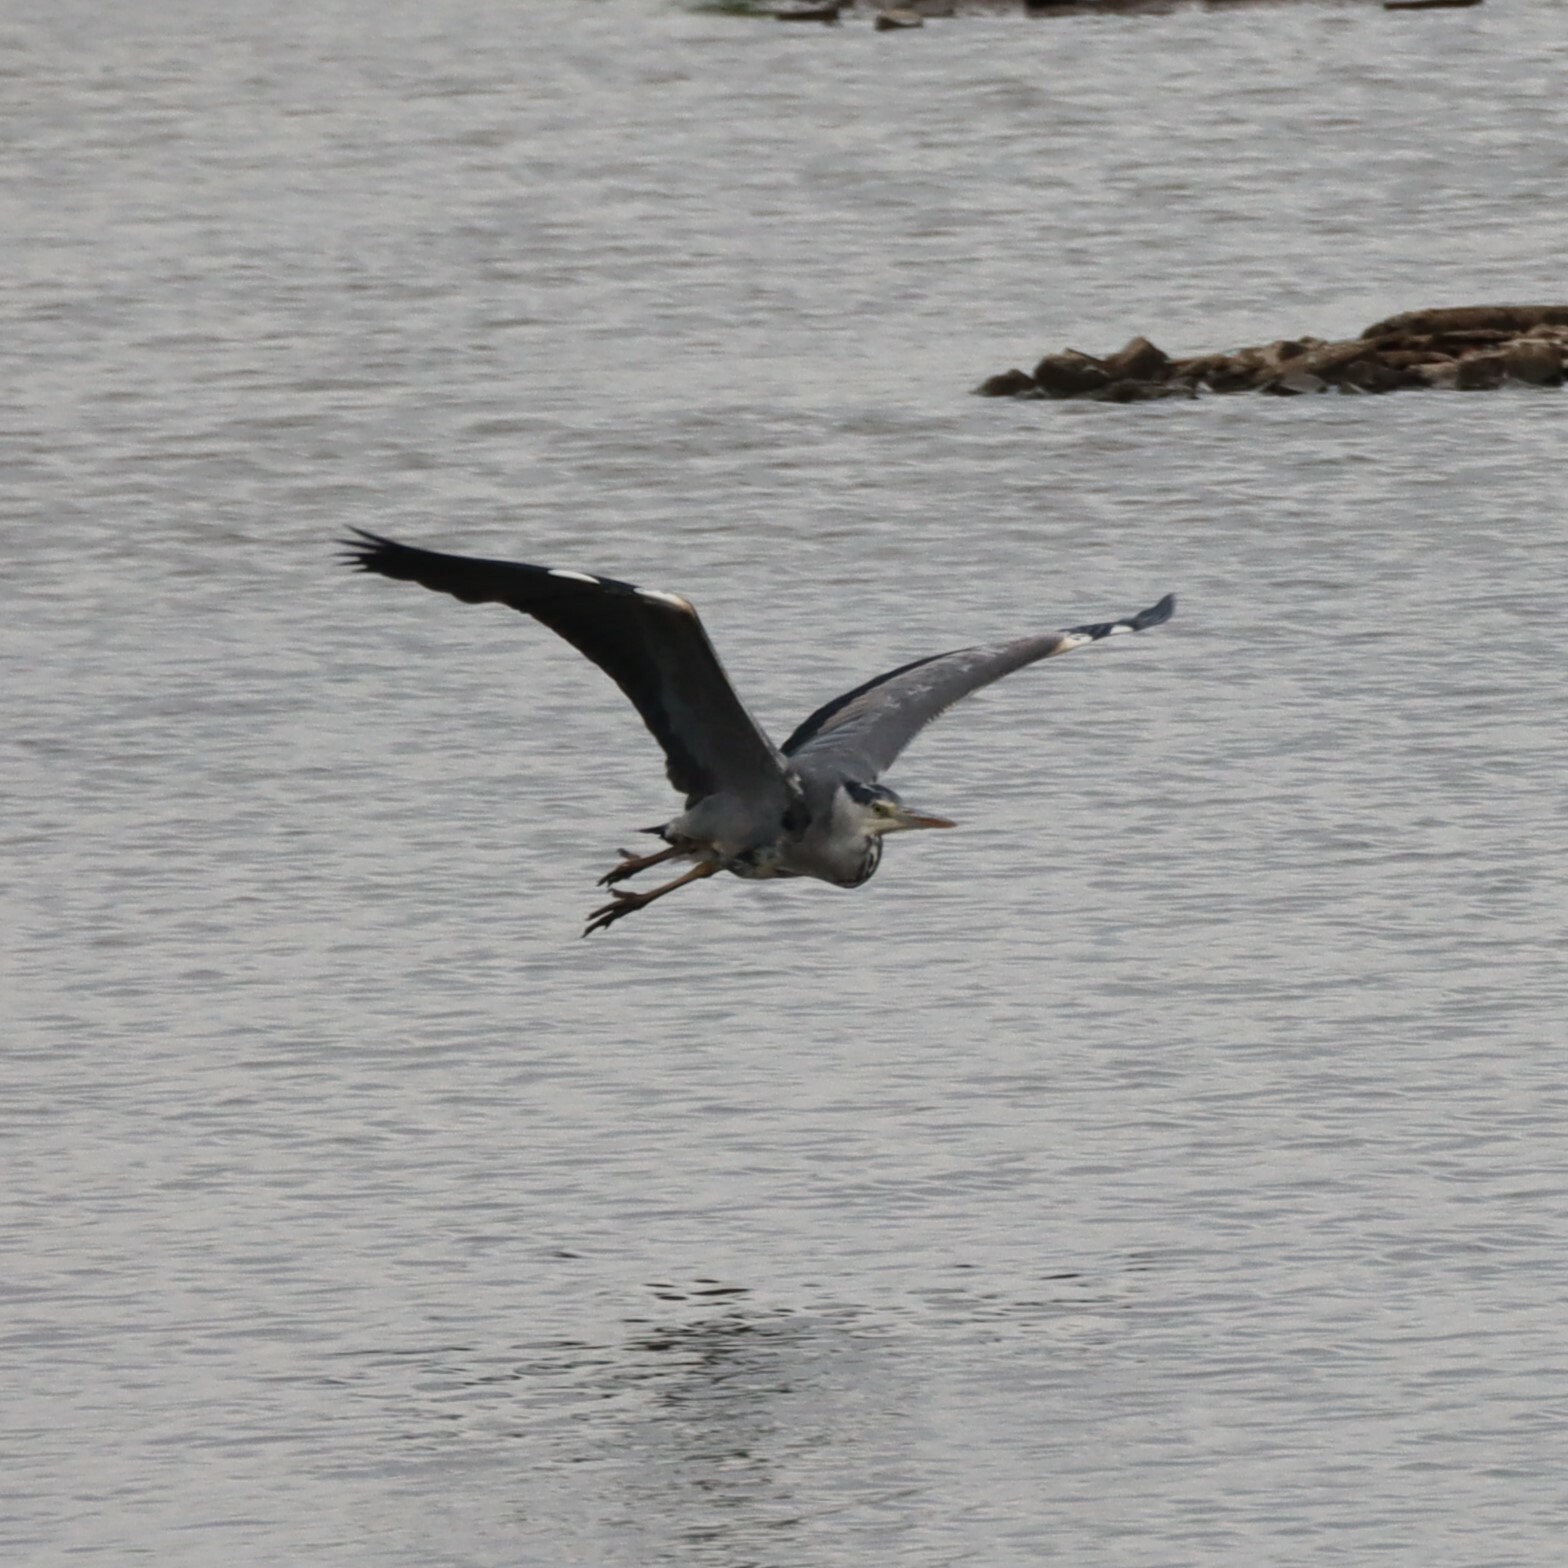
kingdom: Animalia
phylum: Chordata
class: Aves
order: Pelecaniformes
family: Ardeidae
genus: Ardea
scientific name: Ardea cinerea
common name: Grey heron
